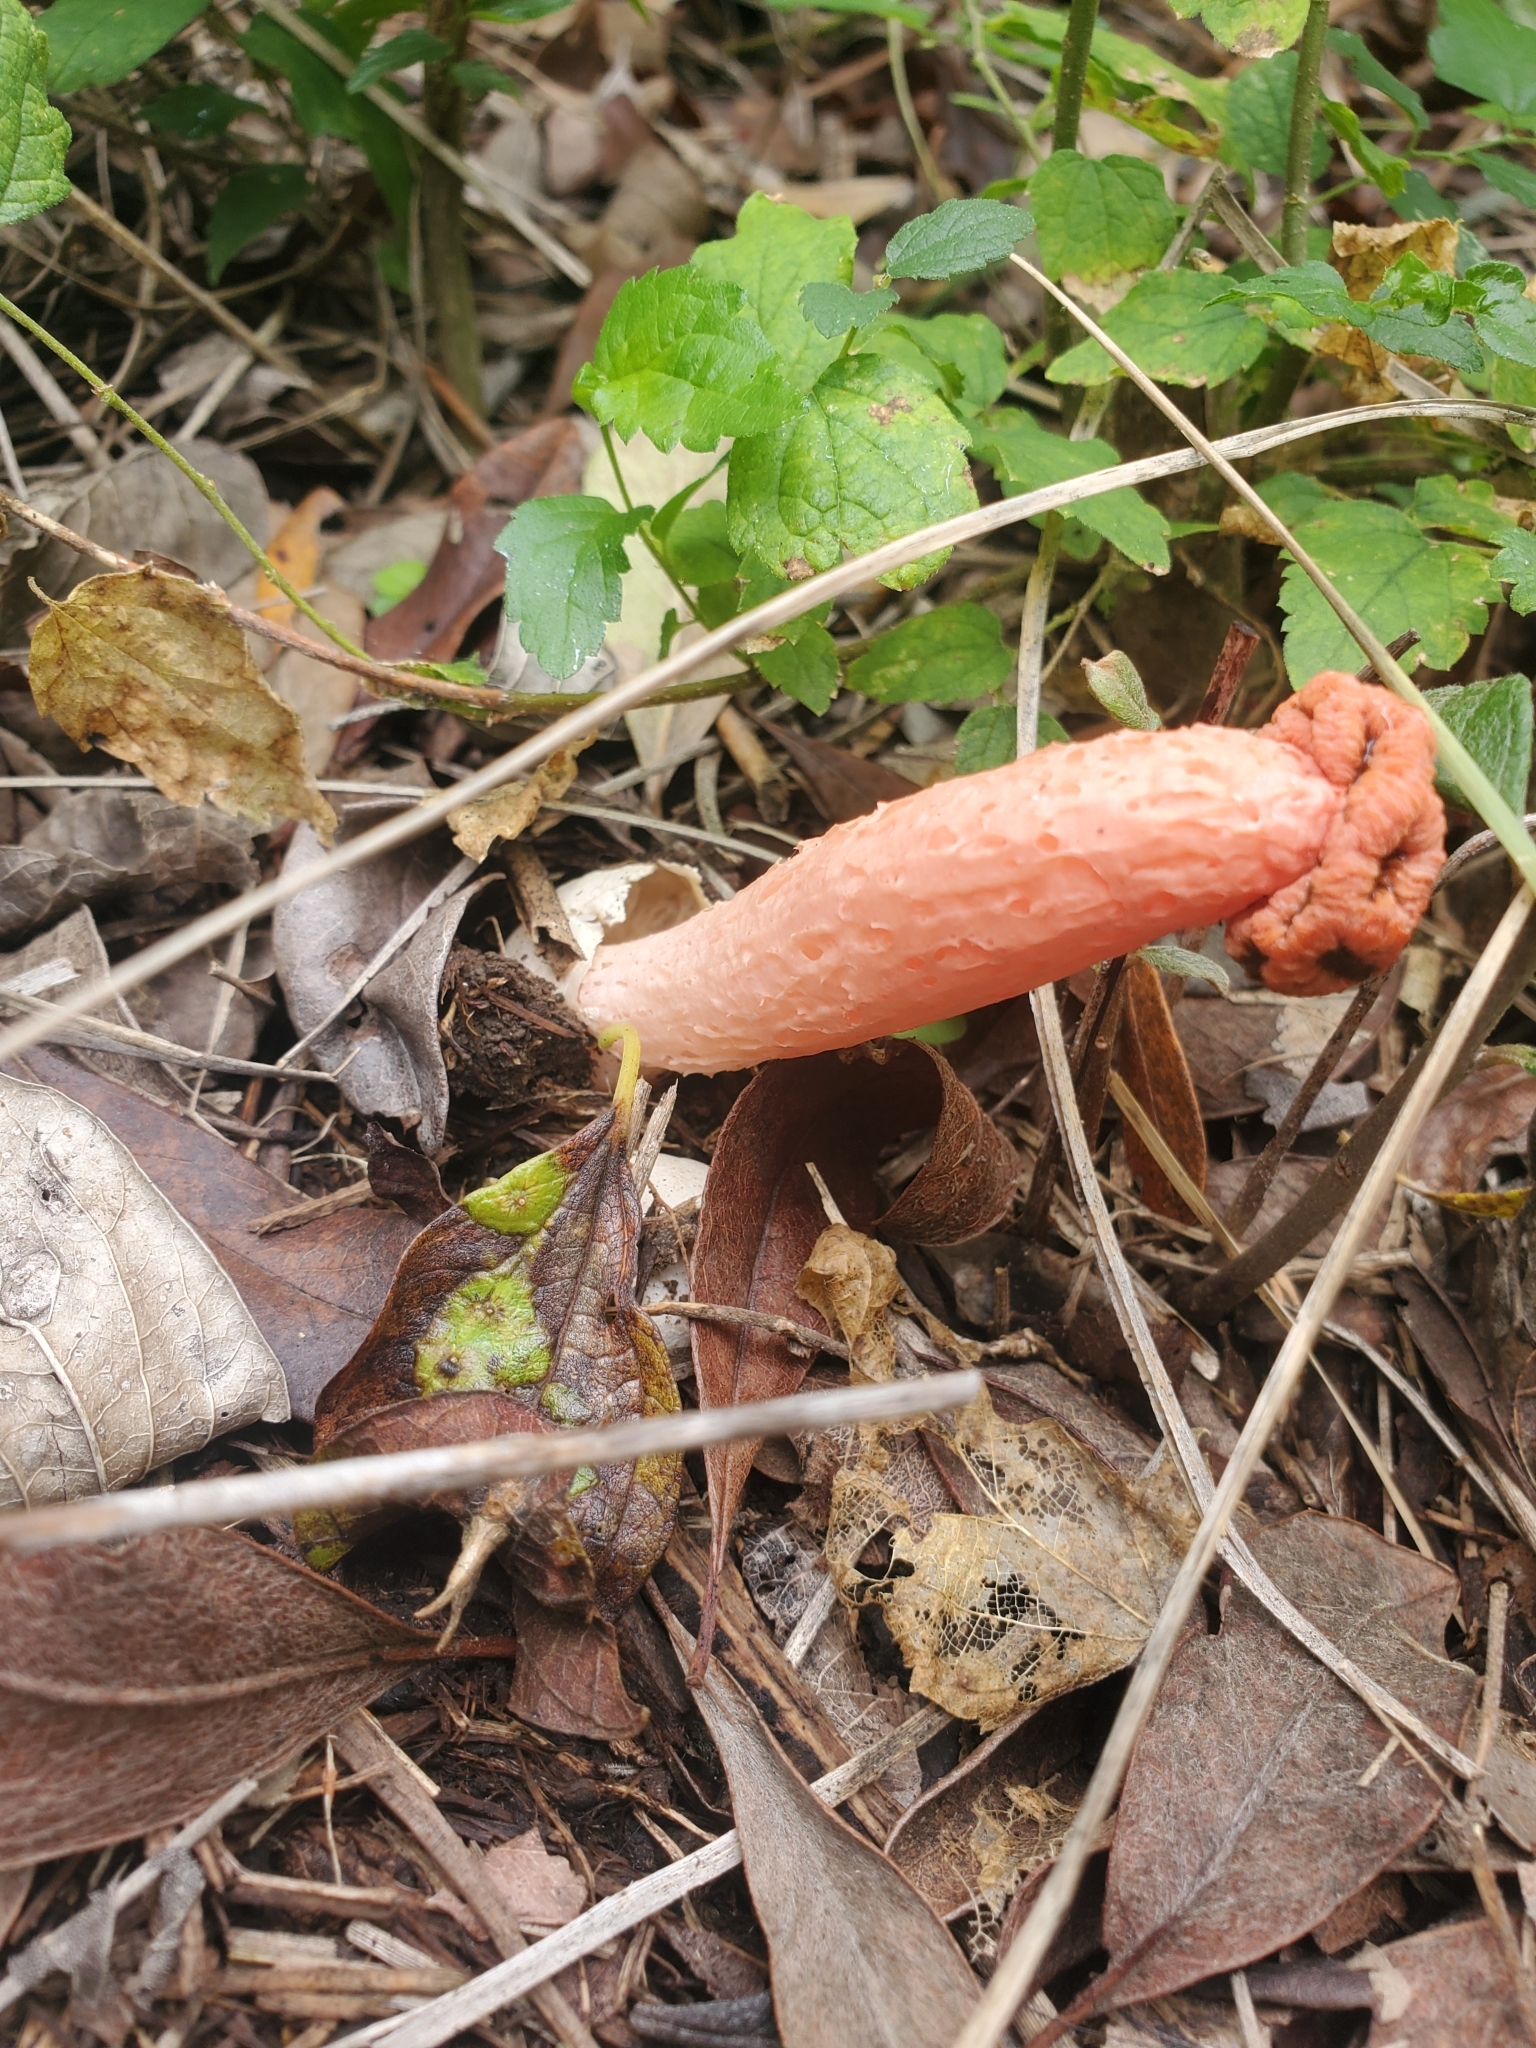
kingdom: Fungi
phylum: Basidiomycota
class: Agaricomycetes
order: Phallales
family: Phallaceae
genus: Lysurus
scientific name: Lysurus periphragmoides
